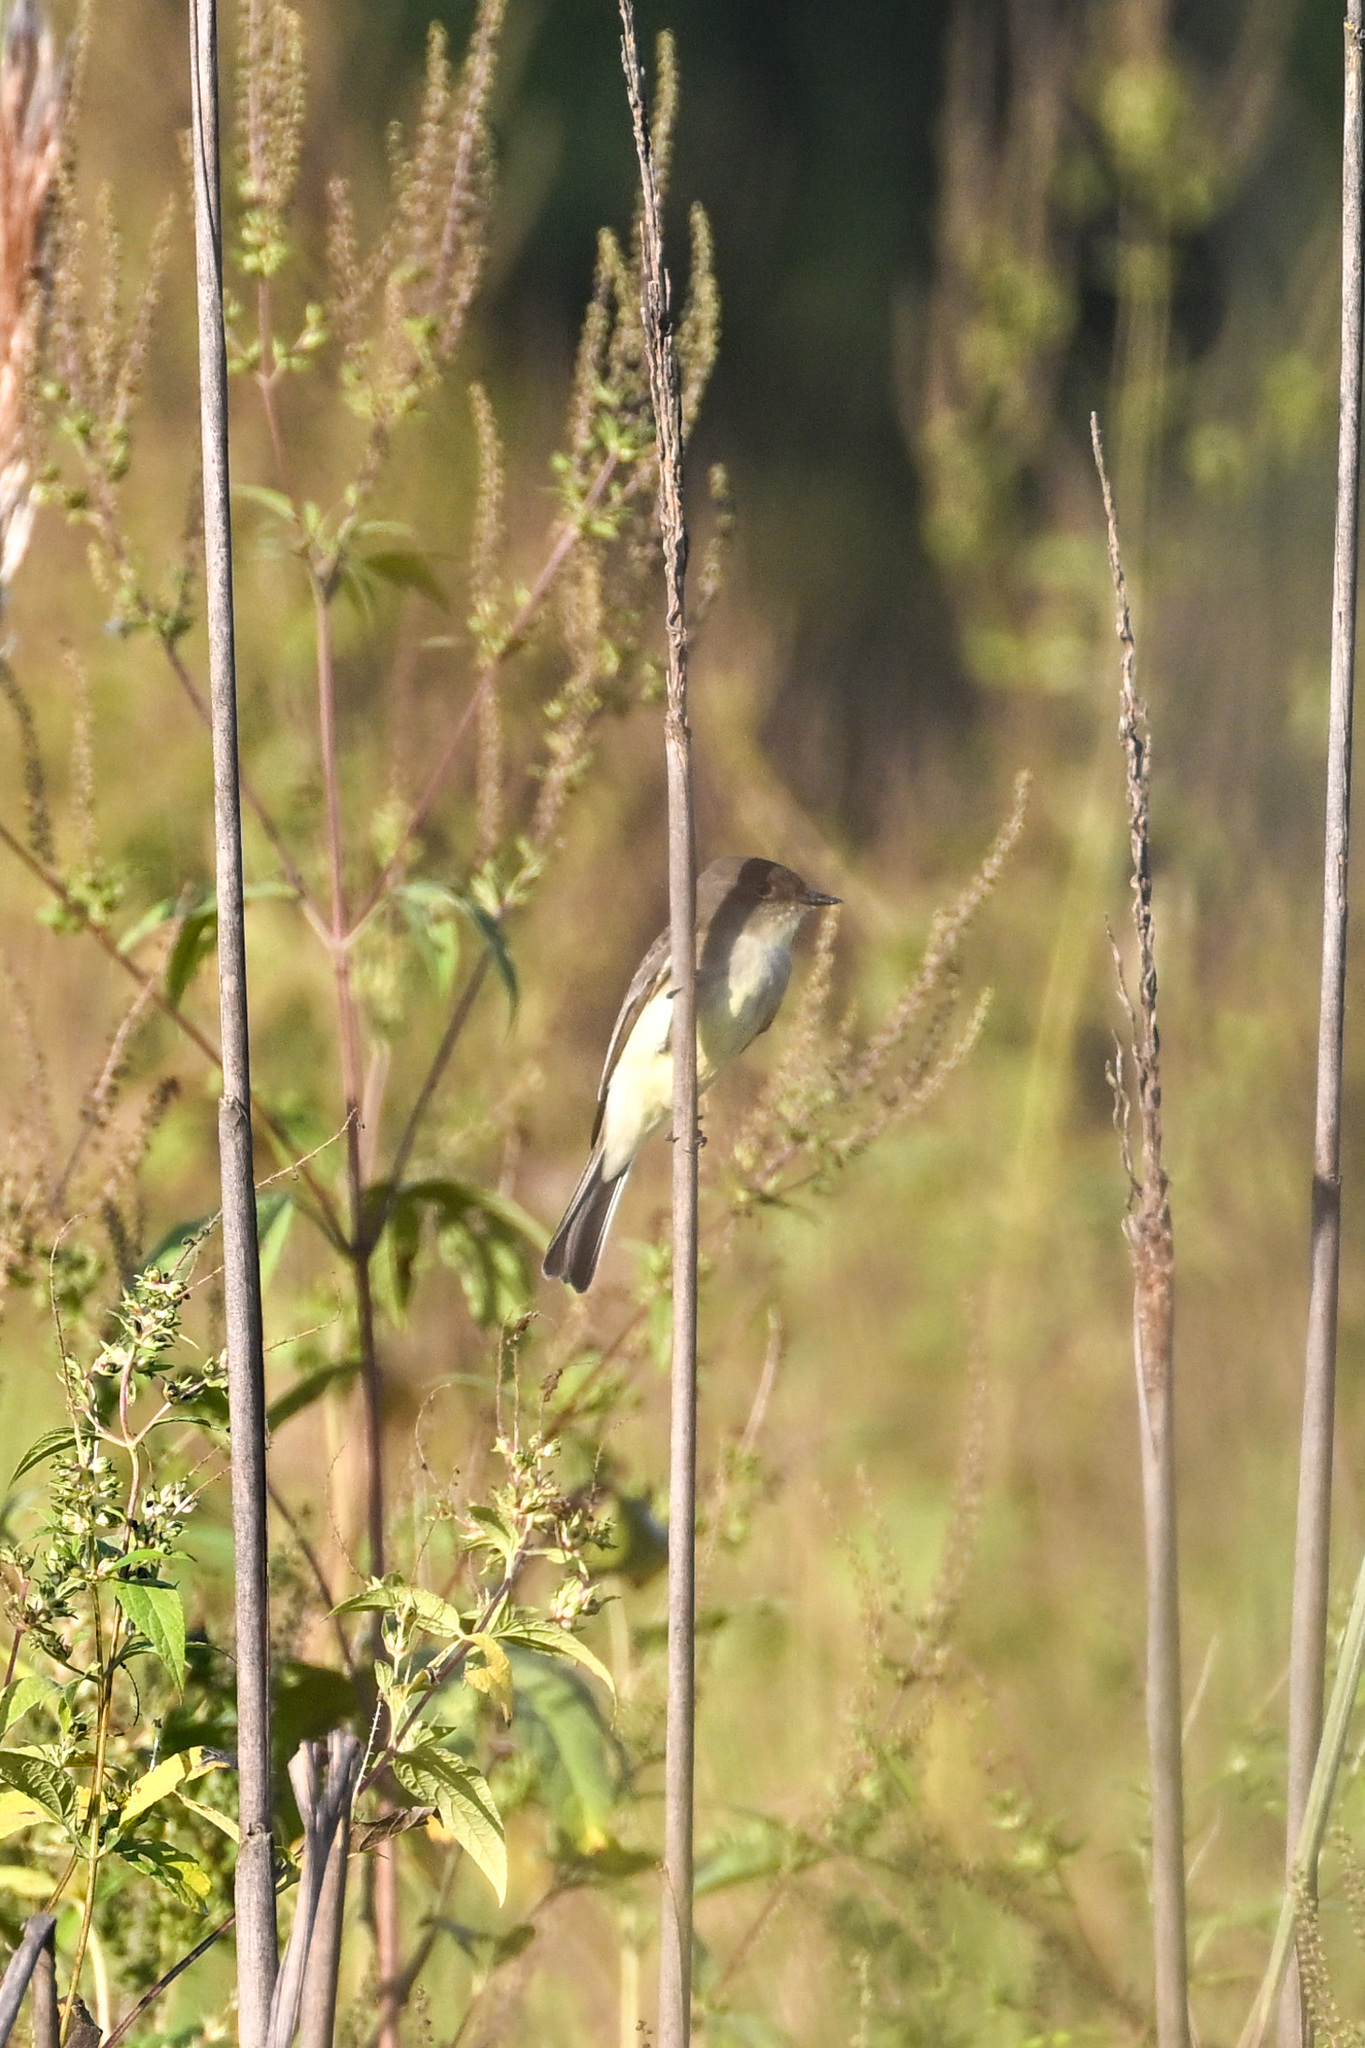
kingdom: Animalia
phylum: Chordata
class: Aves
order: Passeriformes
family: Tyrannidae
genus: Sayornis
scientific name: Sayornis phoebe
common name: Eastern phoebe
